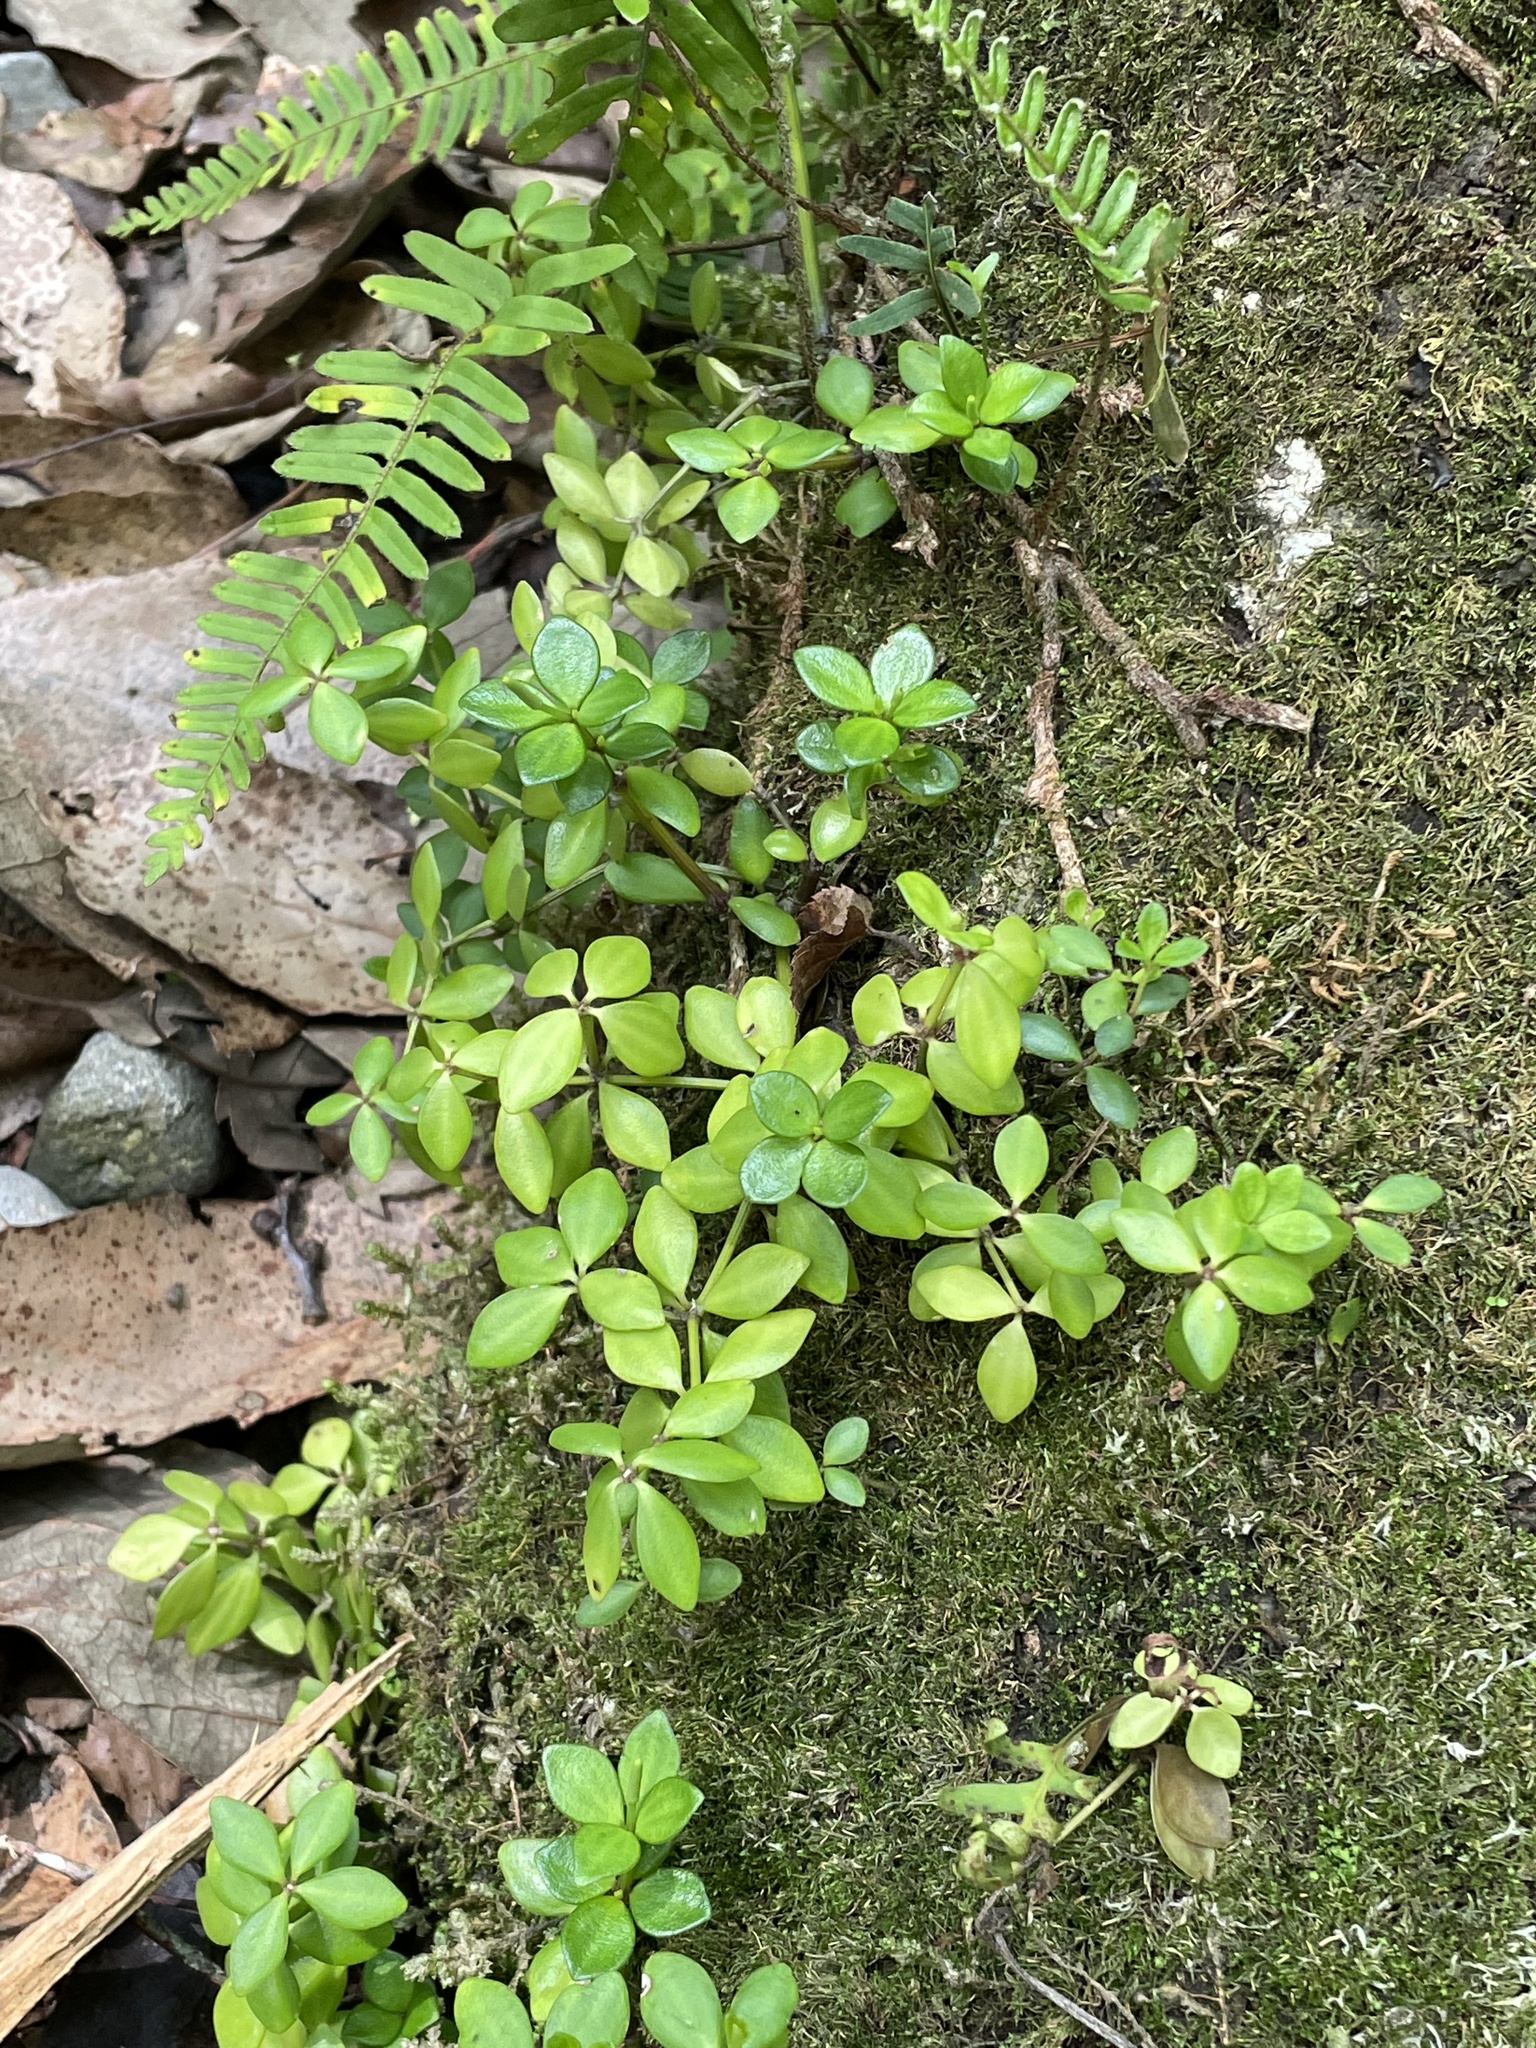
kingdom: Plantae
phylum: Tracheophyta
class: Magnoliopsida
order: Piperales
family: Piperaceae
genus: Peperomia
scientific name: Peperomia tetraphylla
